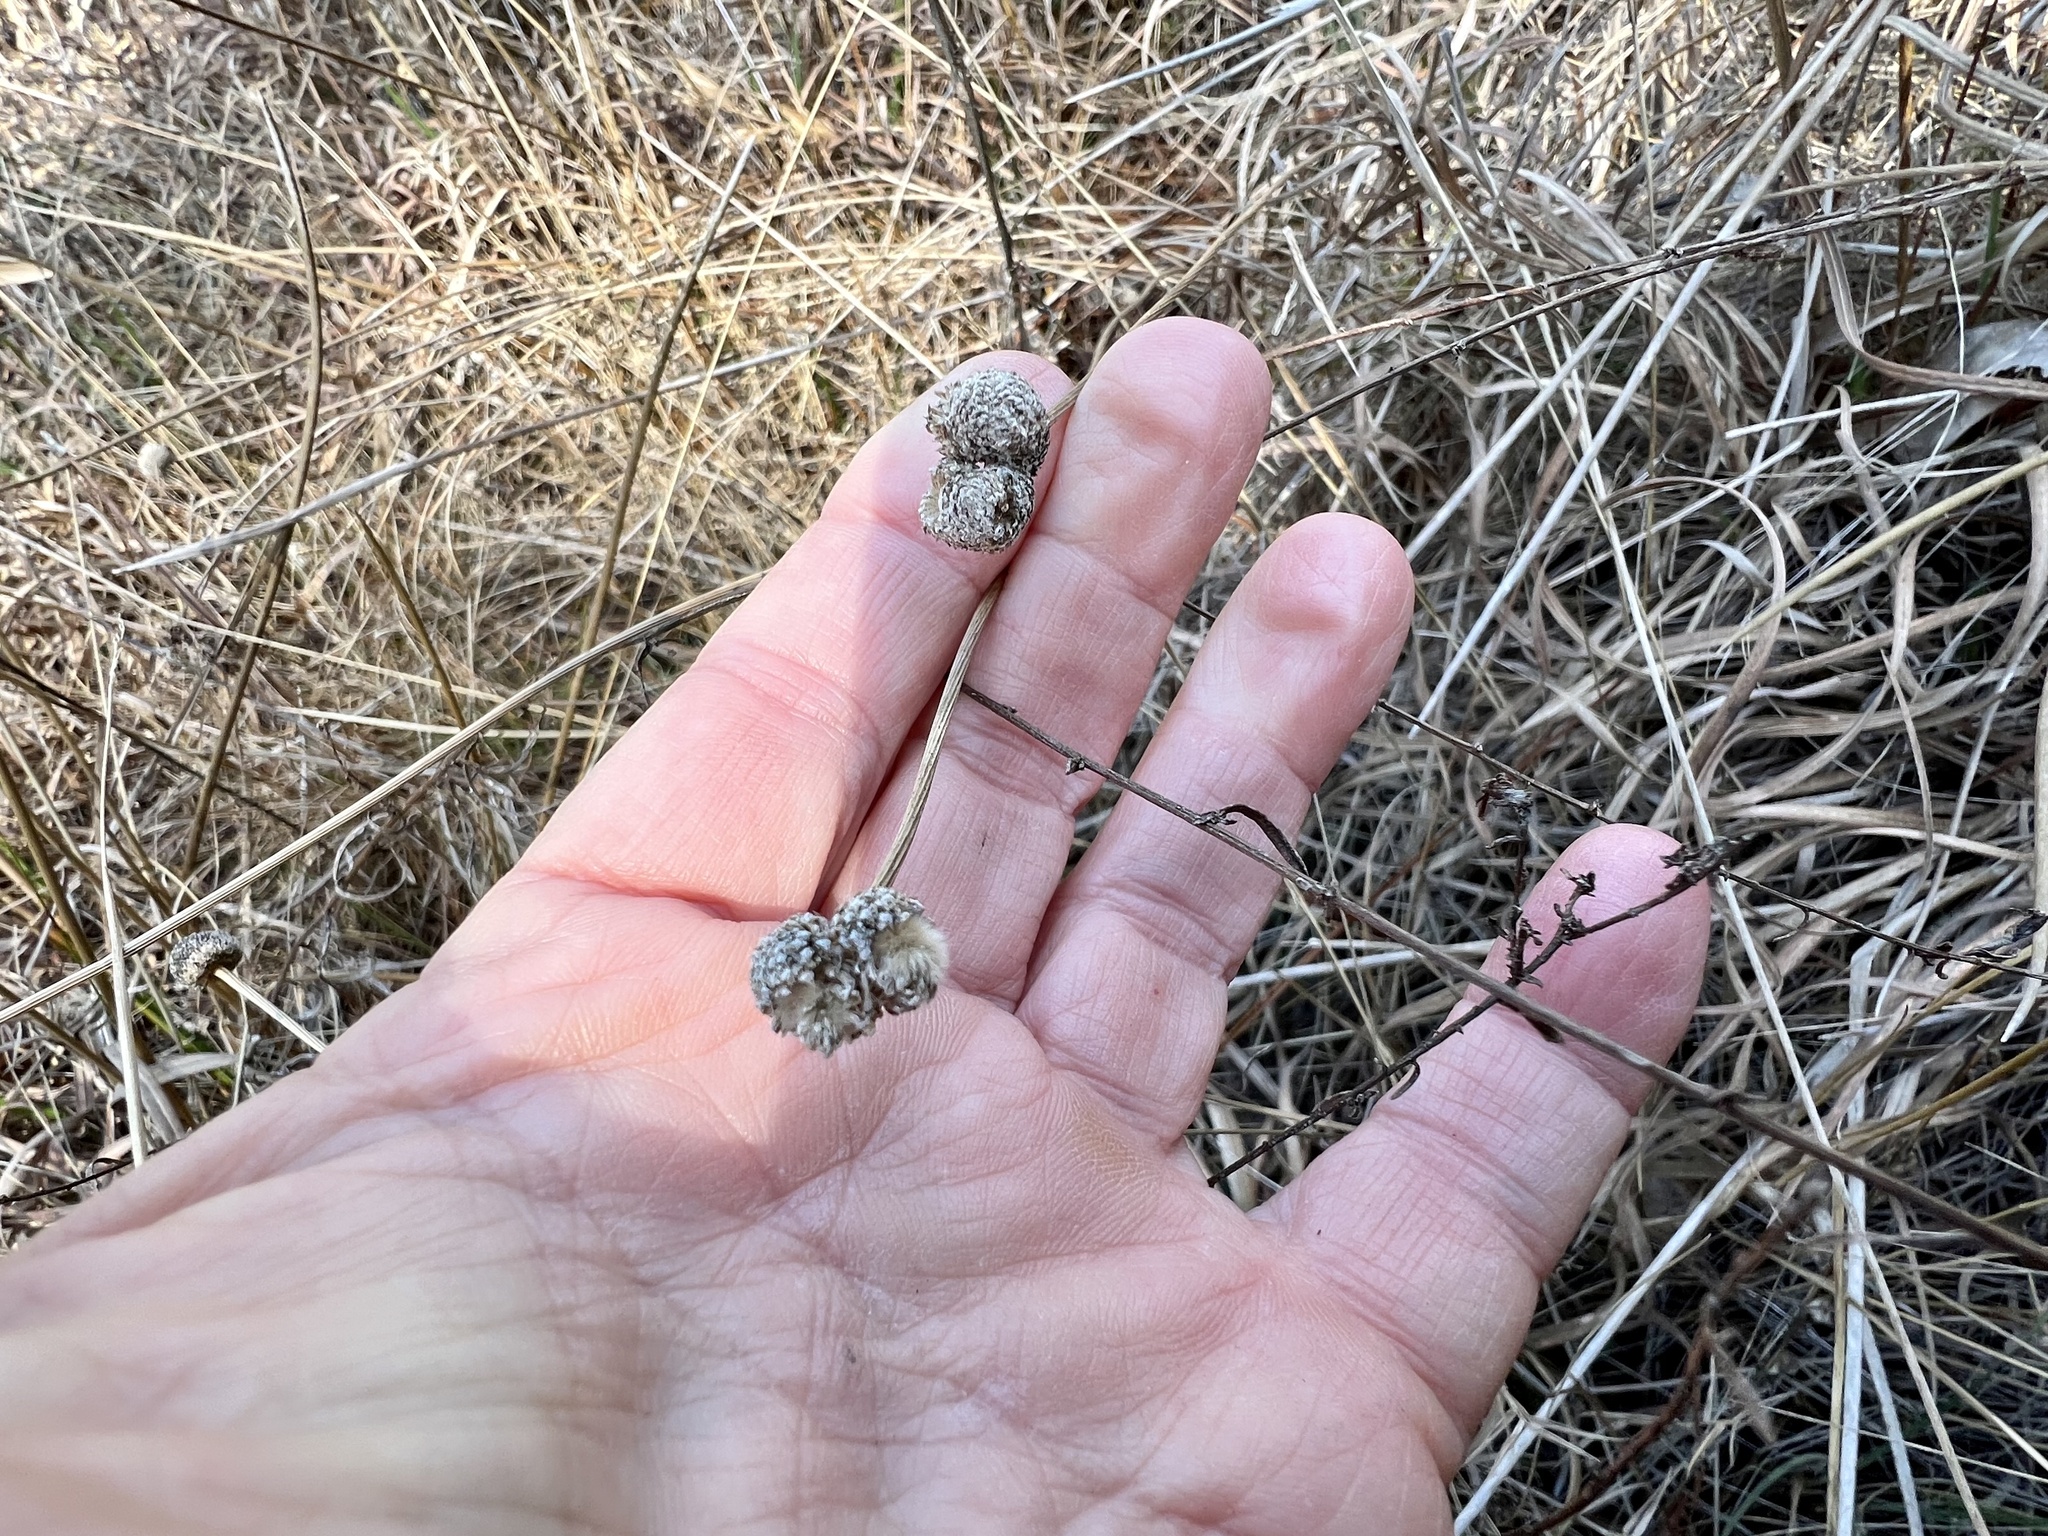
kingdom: Plantae
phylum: Tracheophyta
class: Liliopsida
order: Poales
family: Eriocaulaceae
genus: Eriocaulon
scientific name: Eriocaulon decangulare
